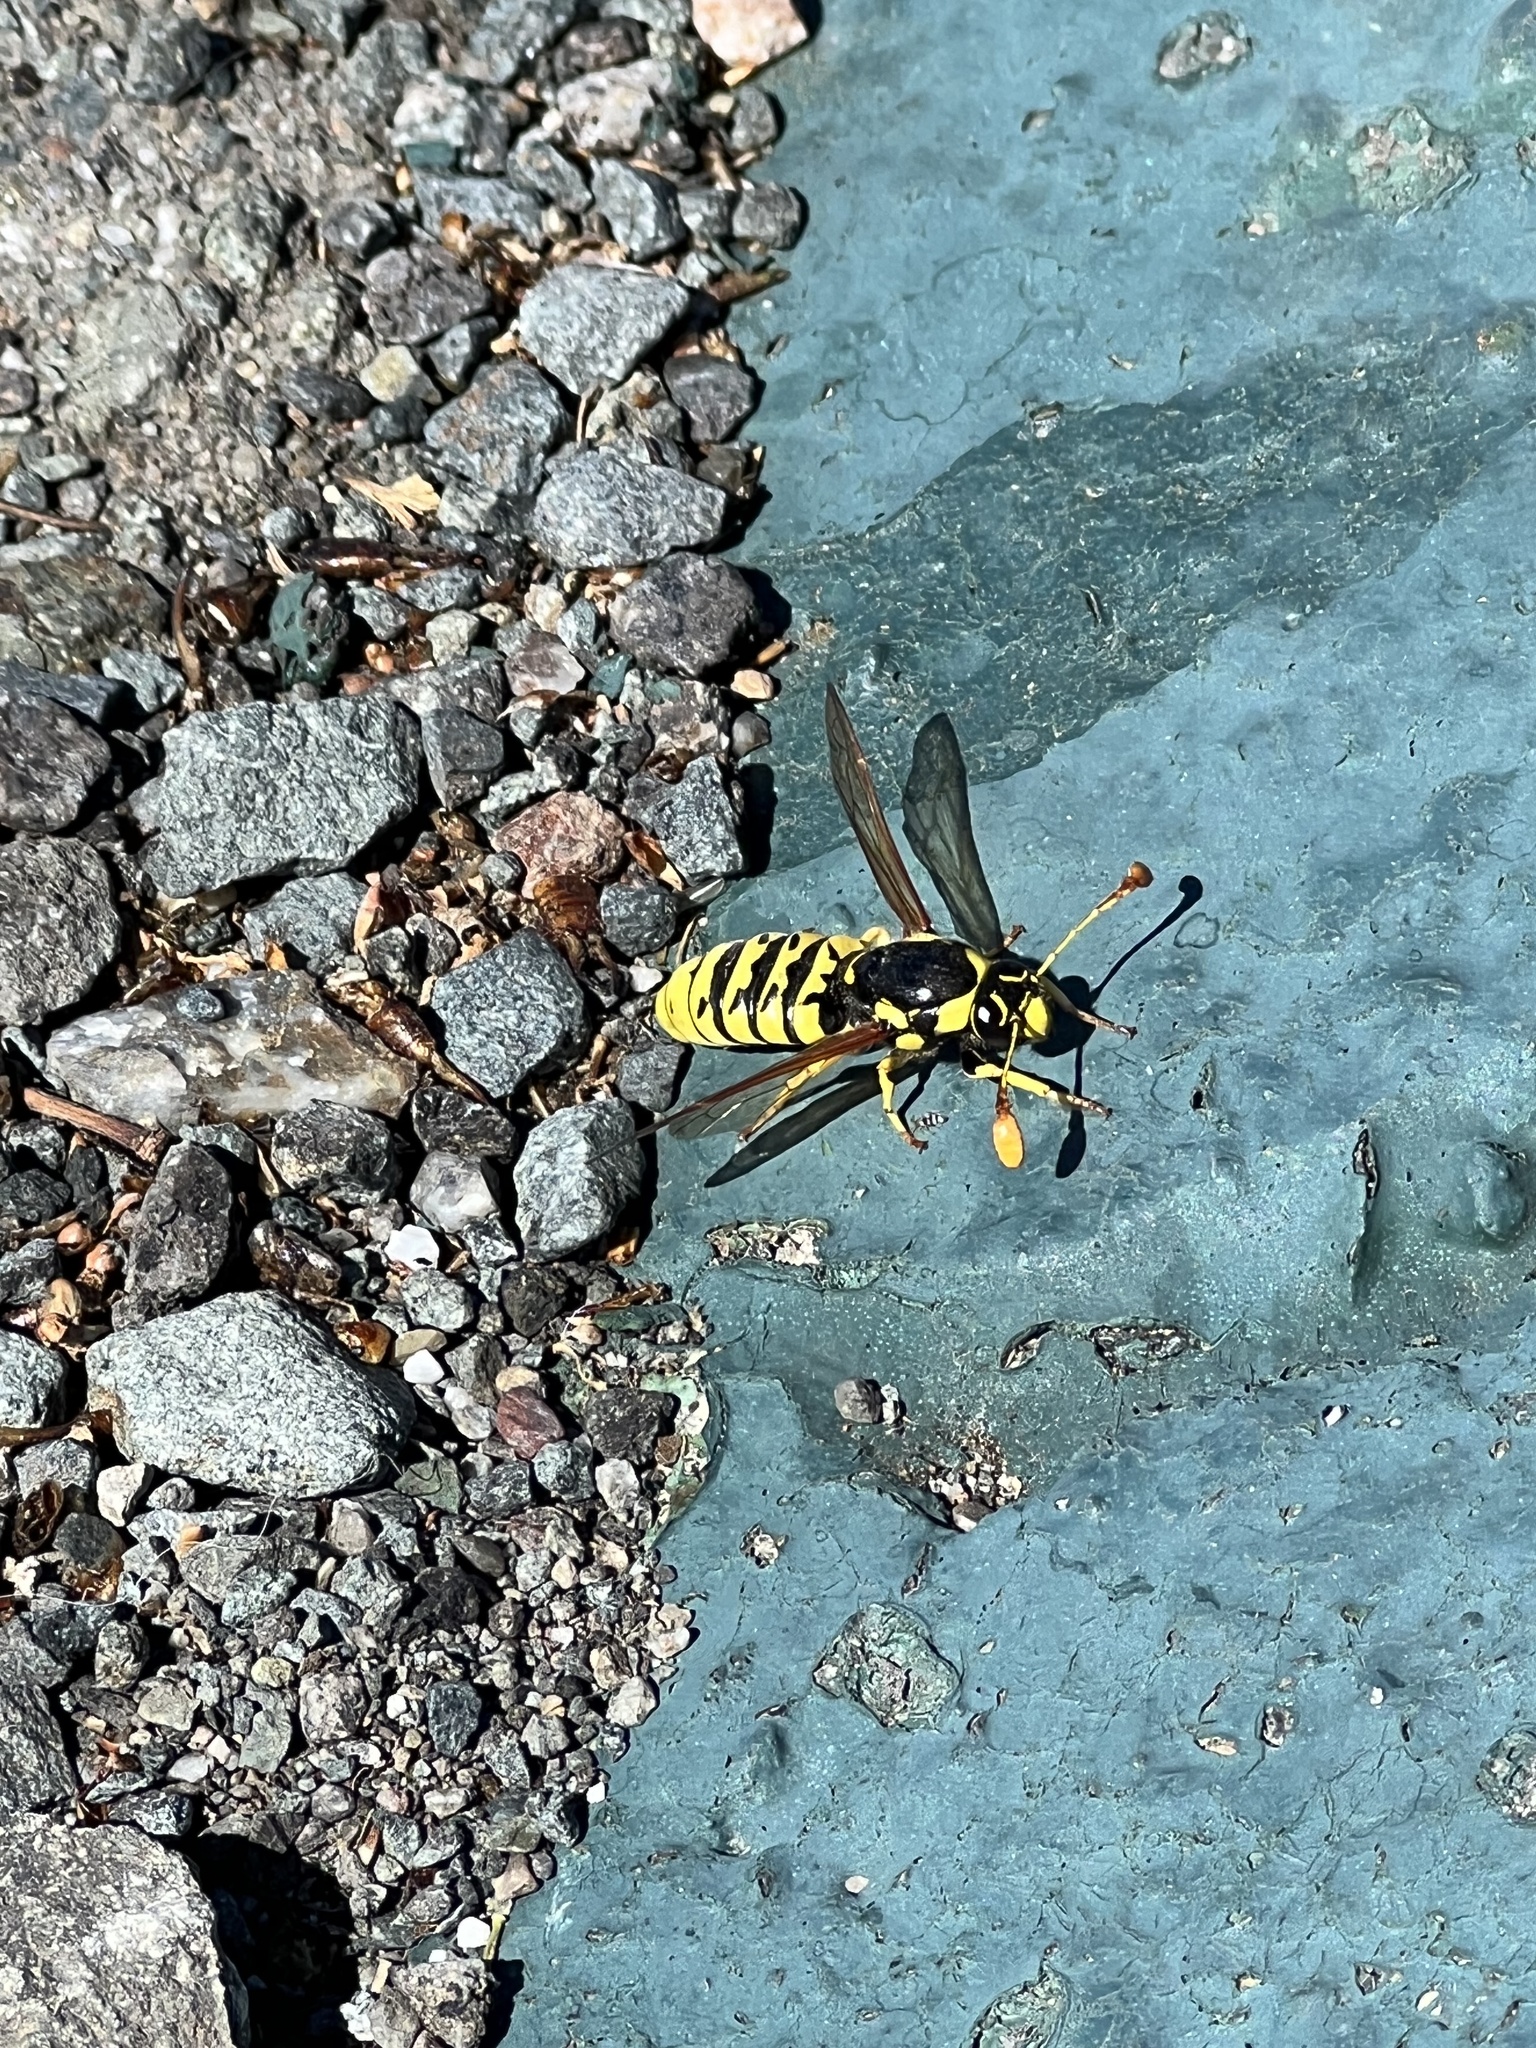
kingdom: Animalia
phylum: Arthropoda
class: Insecta
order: Hymenoptera
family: Masaridae
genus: Pseudomasaris
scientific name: Pseudomasaris vespoides
